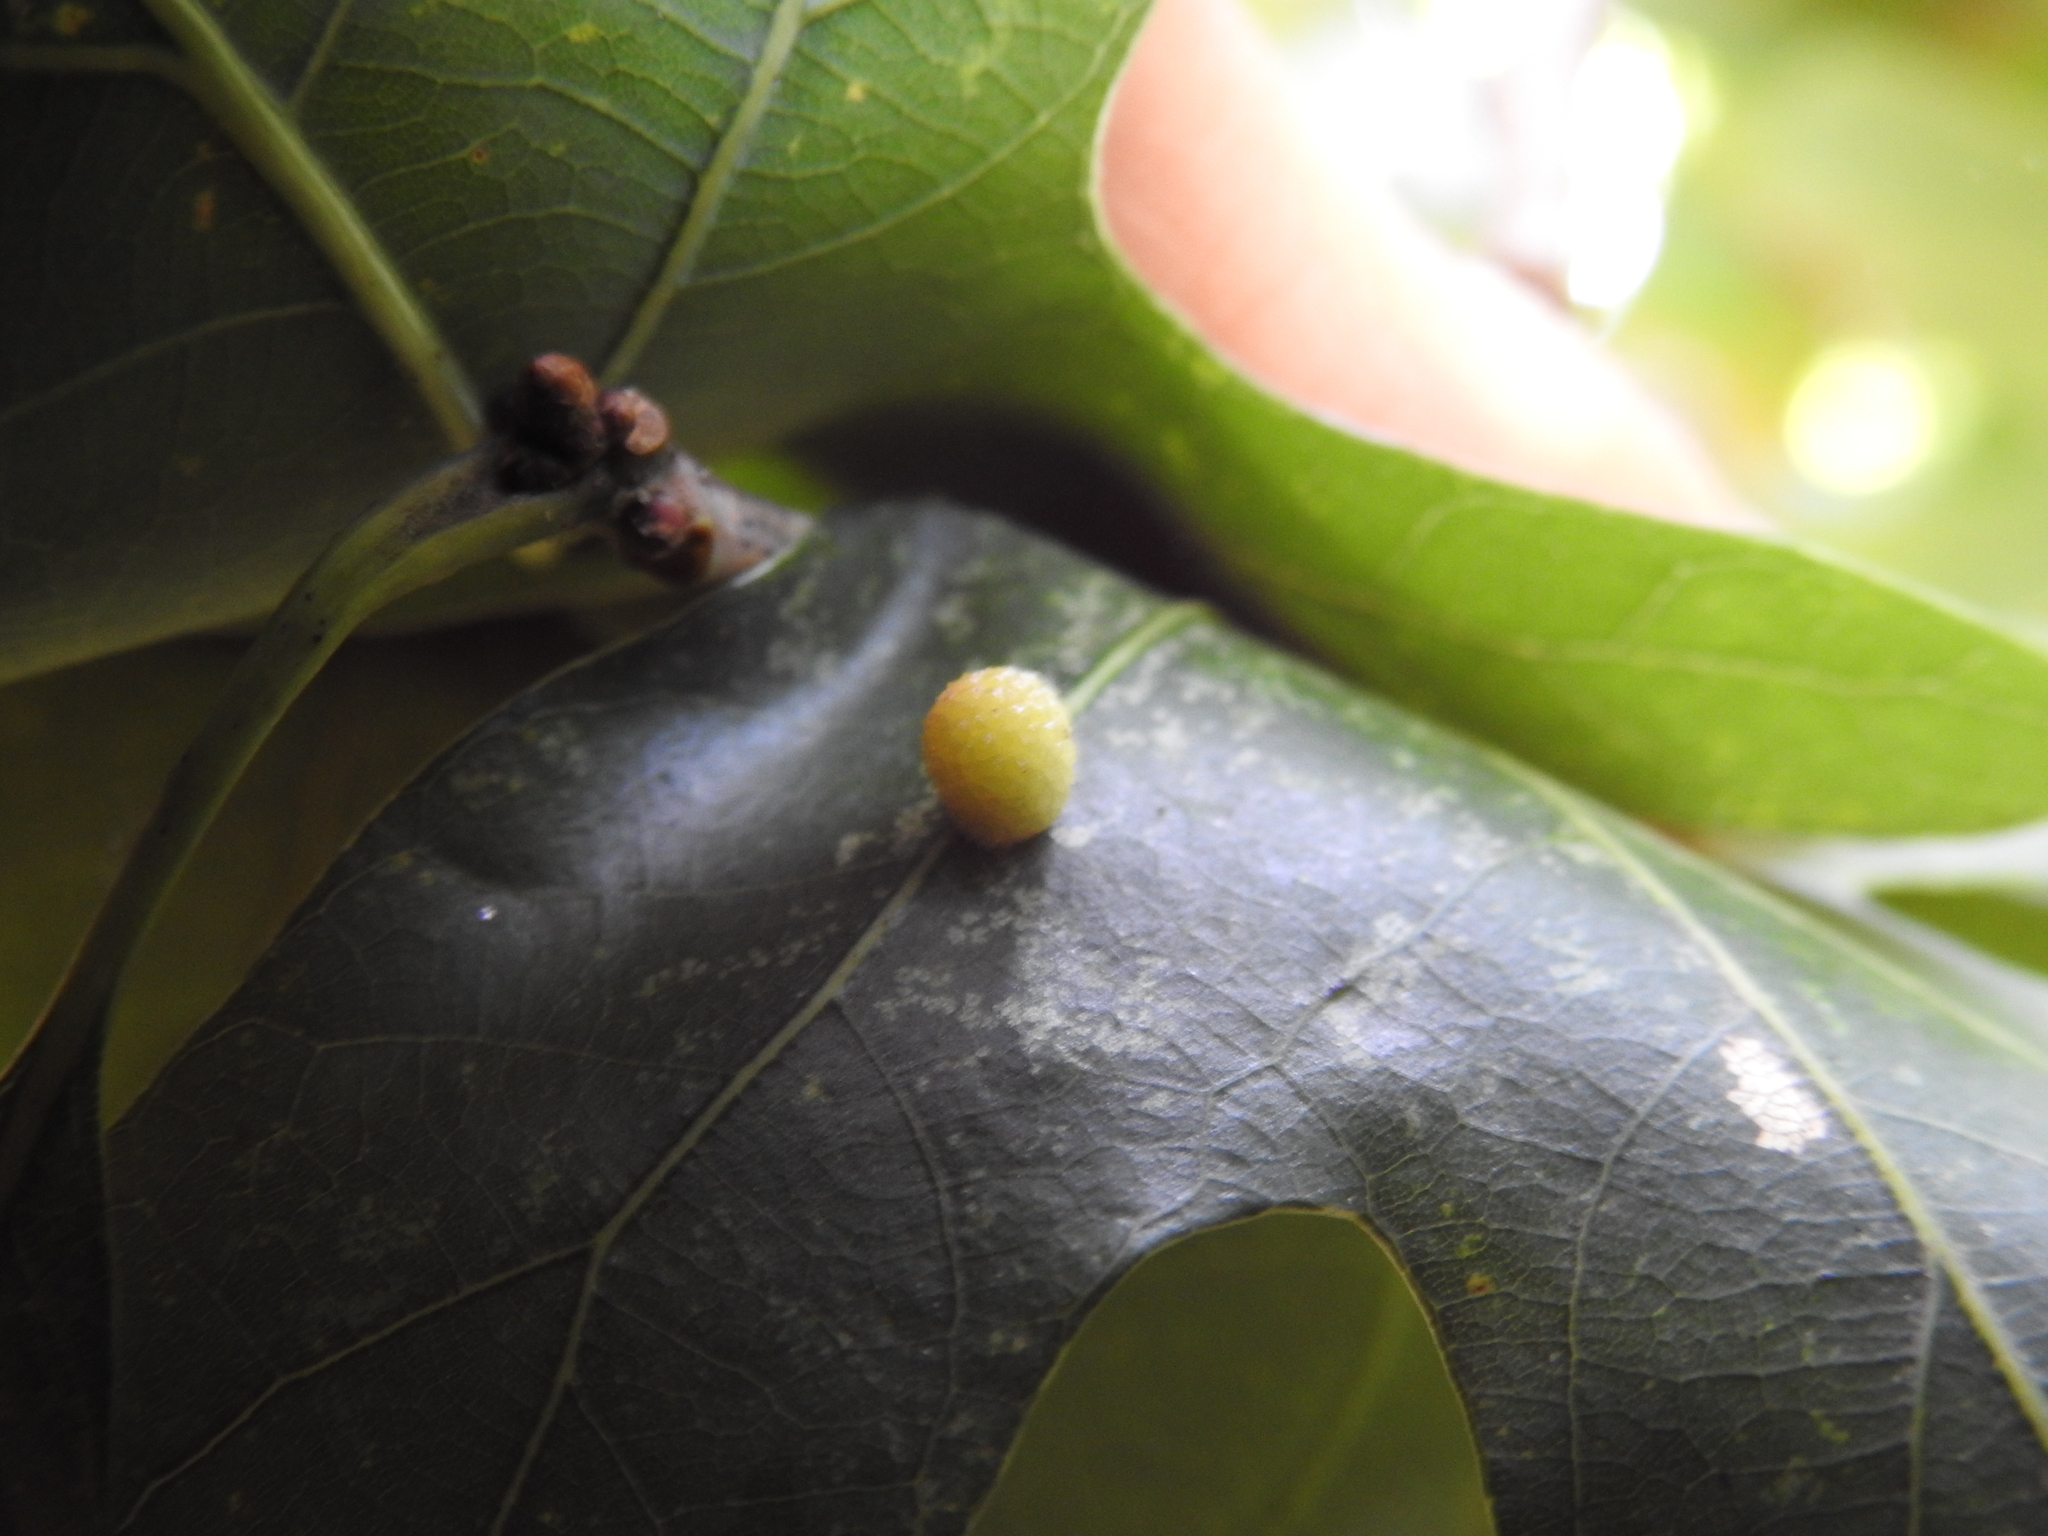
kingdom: Animalia
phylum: Arthropoda
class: Insecta
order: Hymenoptera
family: Cynipidae
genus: Acraspis
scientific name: Acraspis
